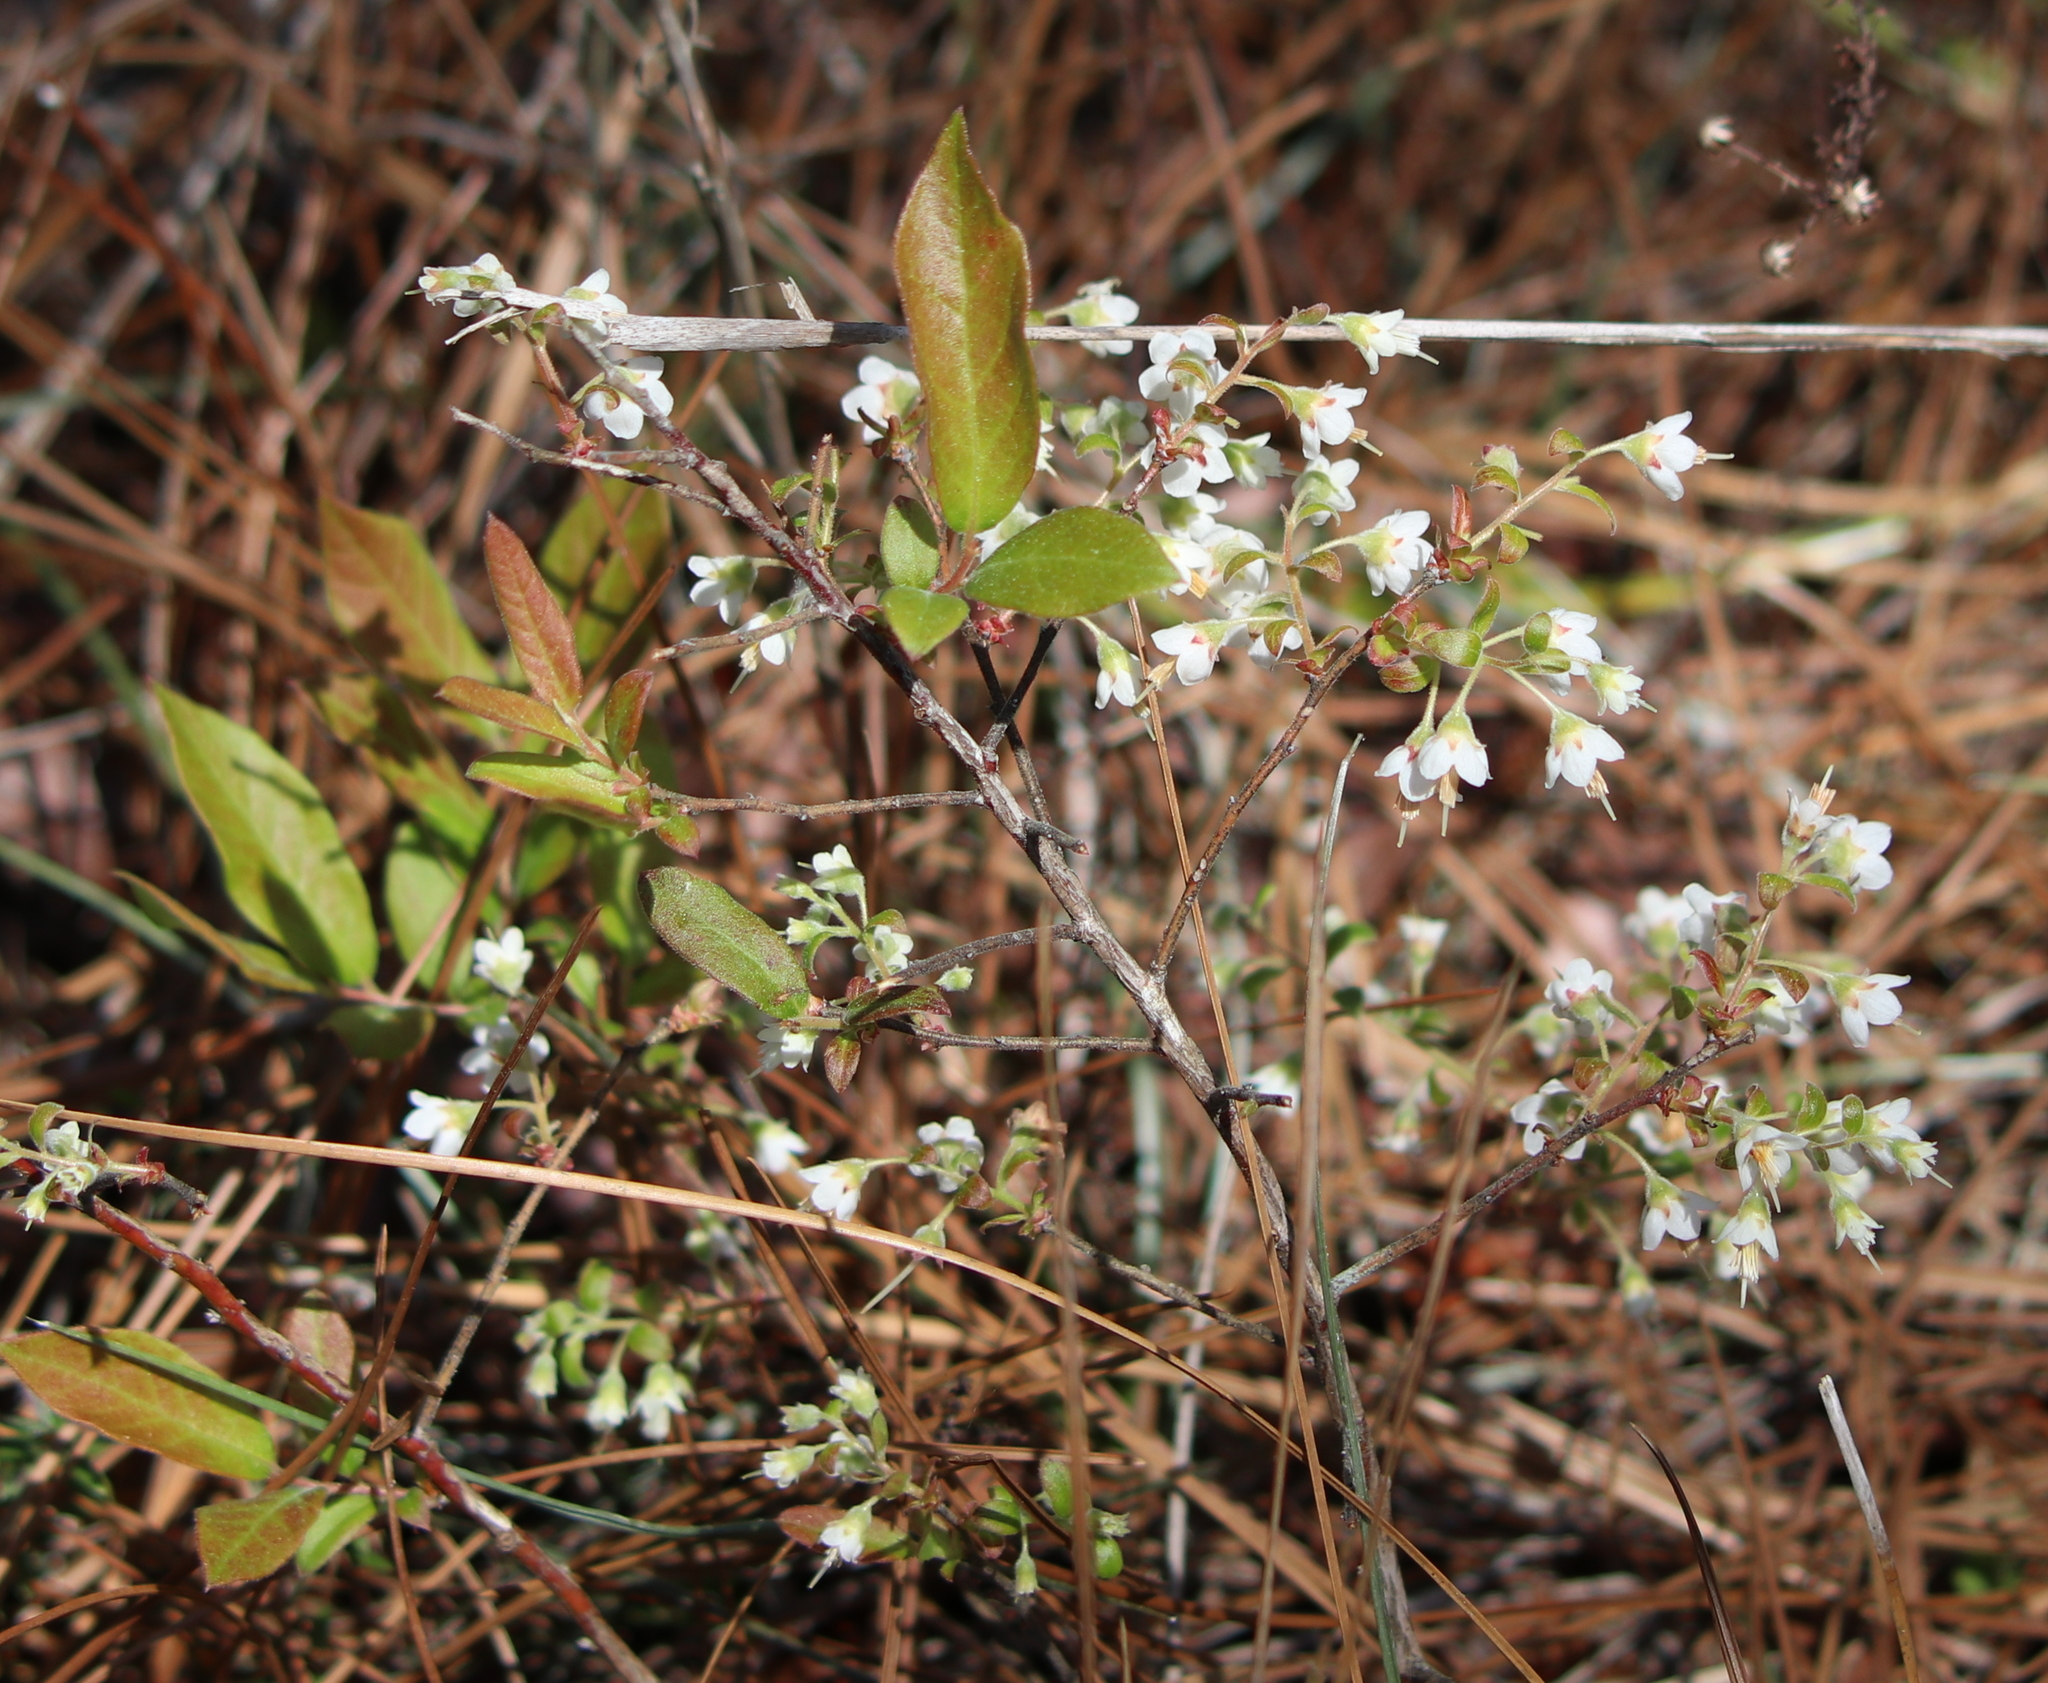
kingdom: Plantae
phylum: Tracheophyta
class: Magnoliopsida
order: Ericales
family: Ericaceae
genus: Vaccinium
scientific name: Vaccinium stamineum
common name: Deerberry
